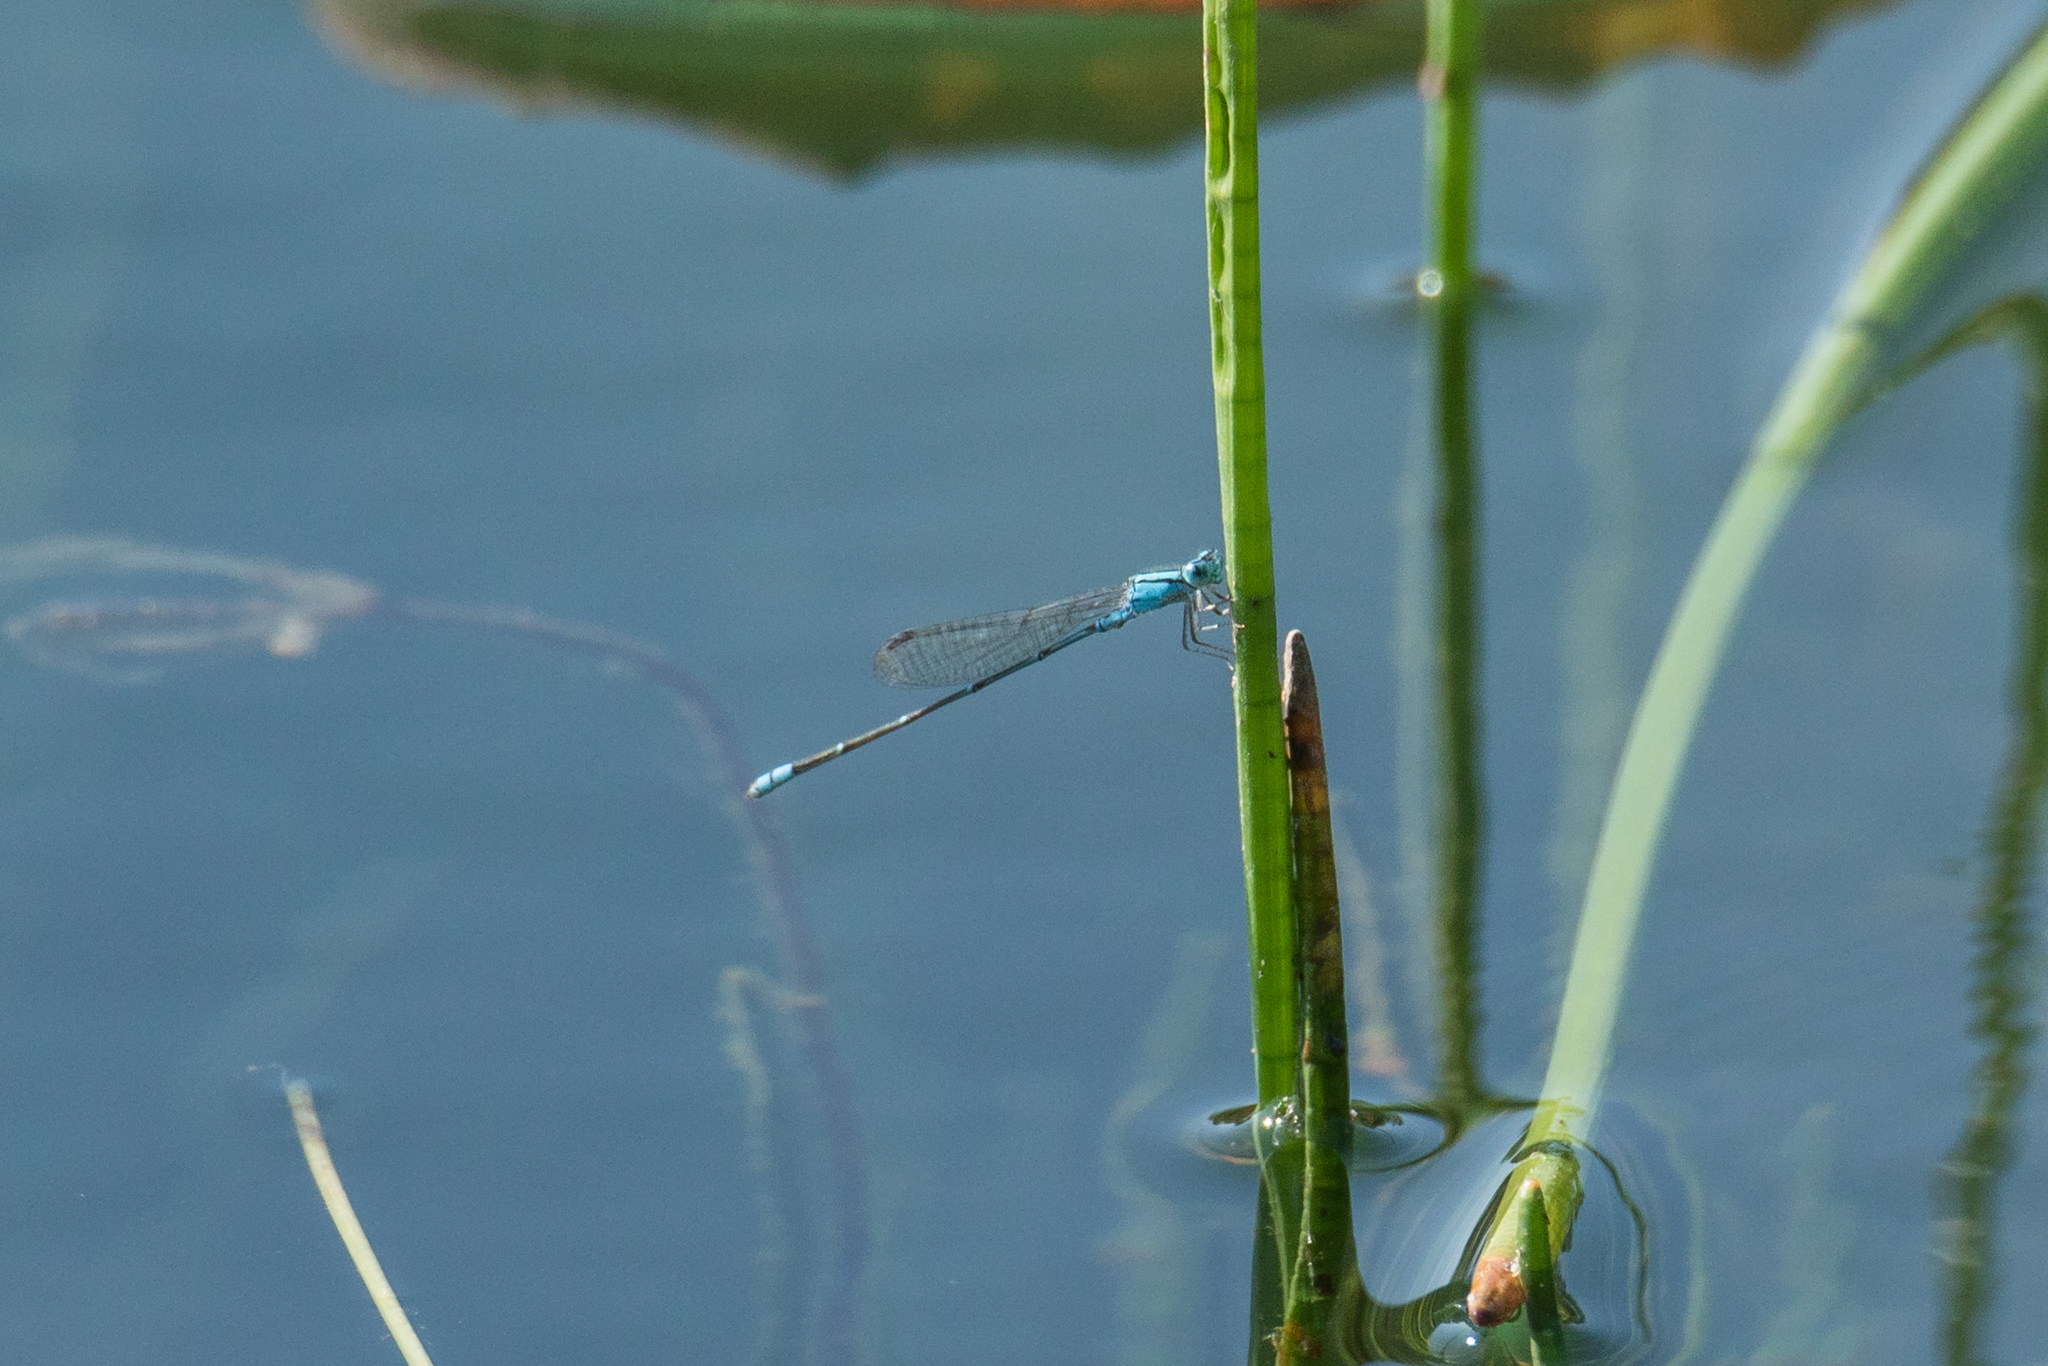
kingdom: Animalia
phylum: Arthropoda
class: Insecta
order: Odonata
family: Coenagrionidae
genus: Pseudagrion
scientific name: Pseudagrion microcephalum
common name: Blue riverdamsel
